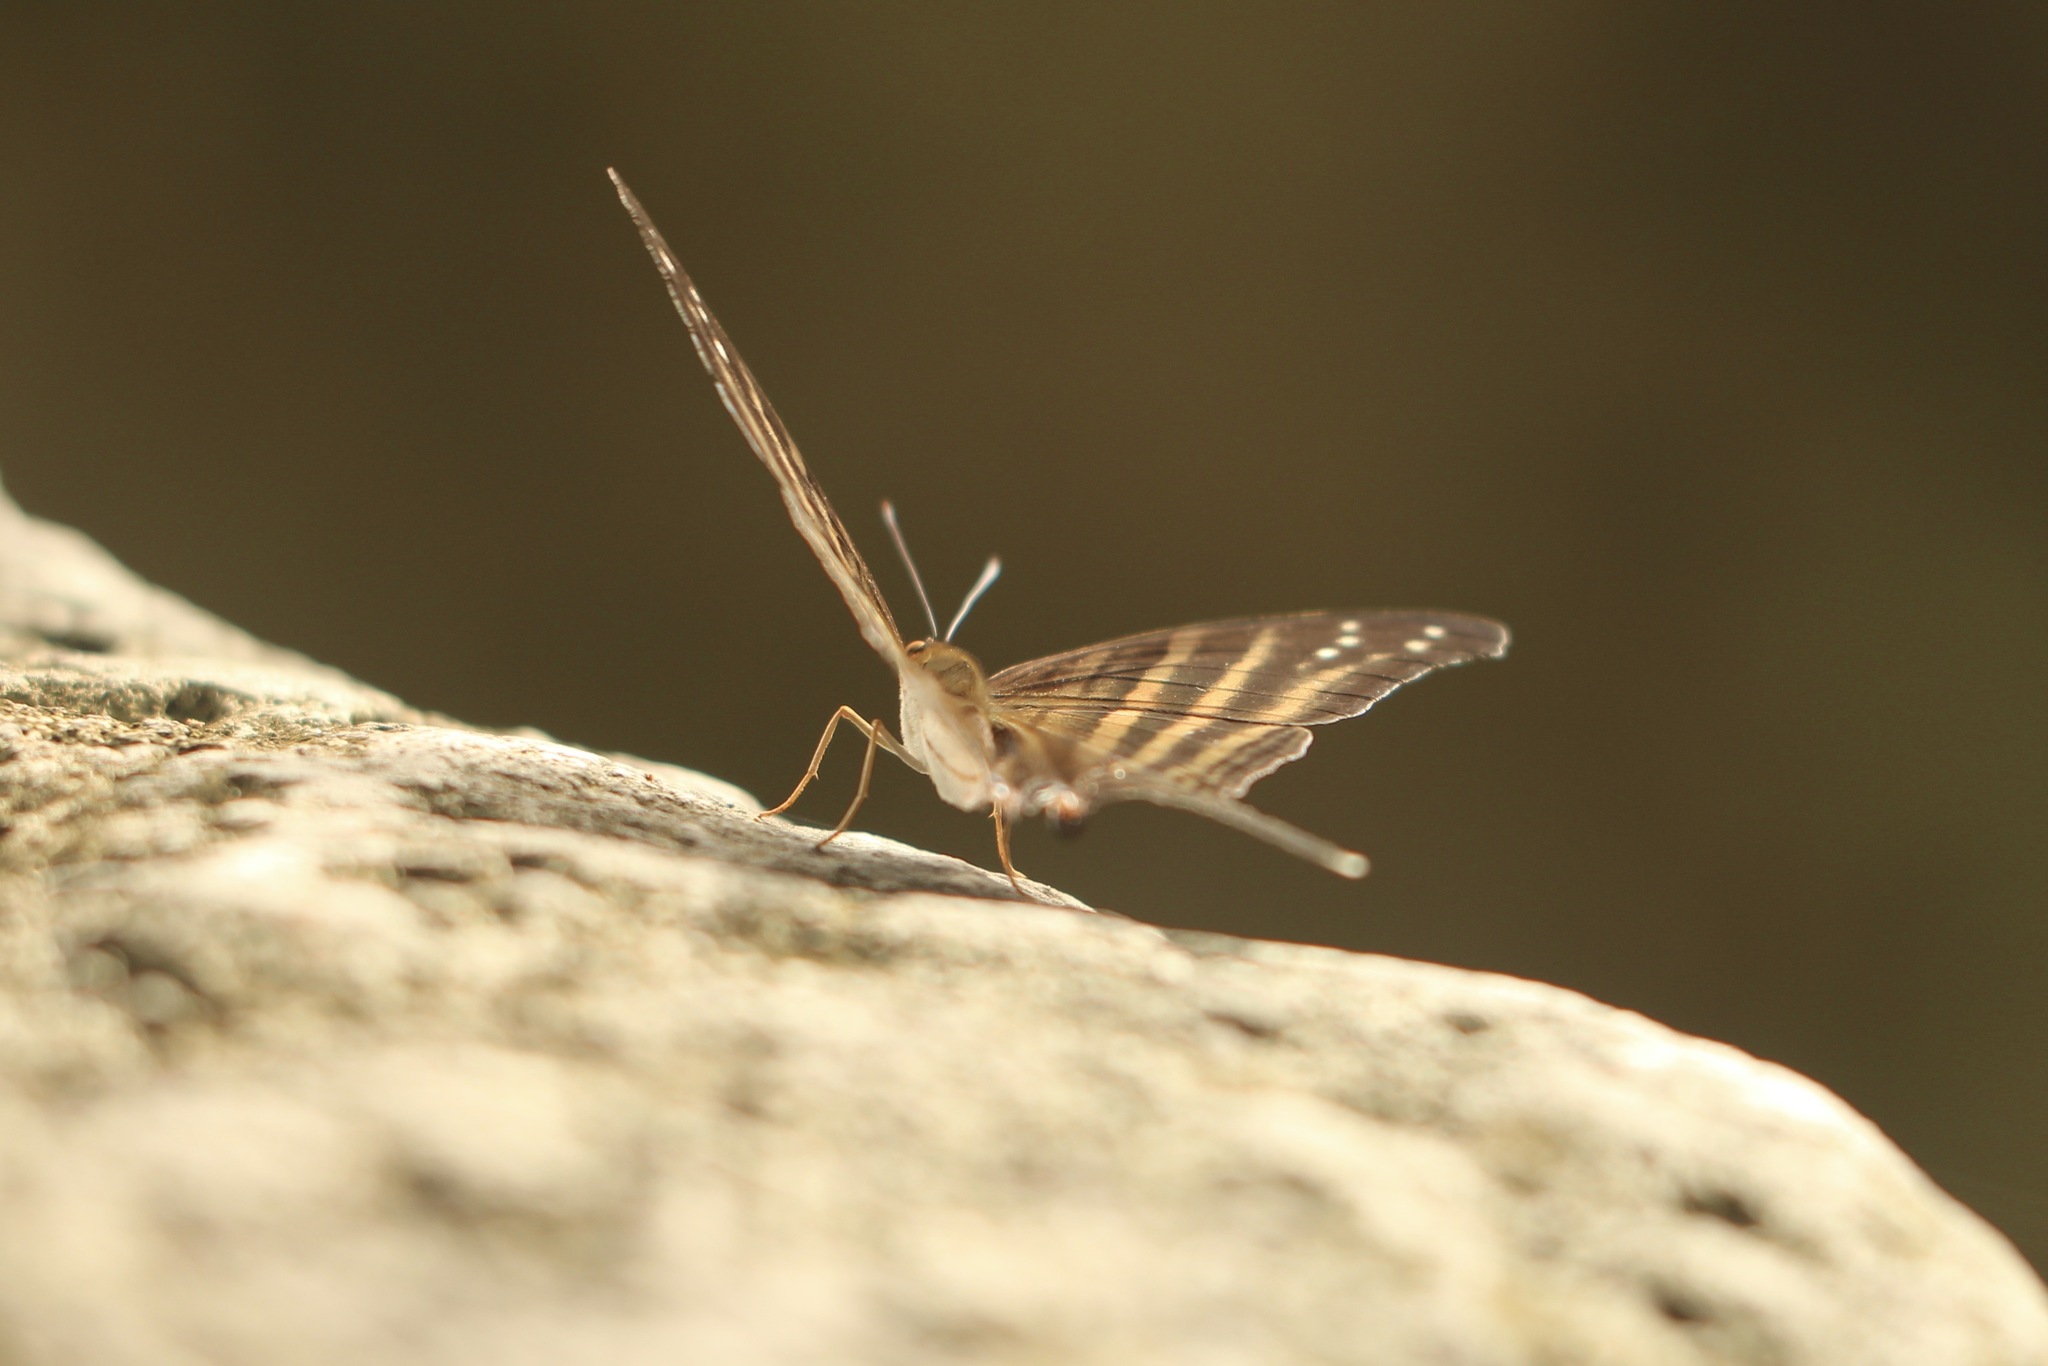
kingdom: Animalia
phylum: Arthropoda
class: Insecta
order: Lepidoptera
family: Nymphalidae
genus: Marpesia
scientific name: Marpesia chiron
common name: Many-banded daggerwing
